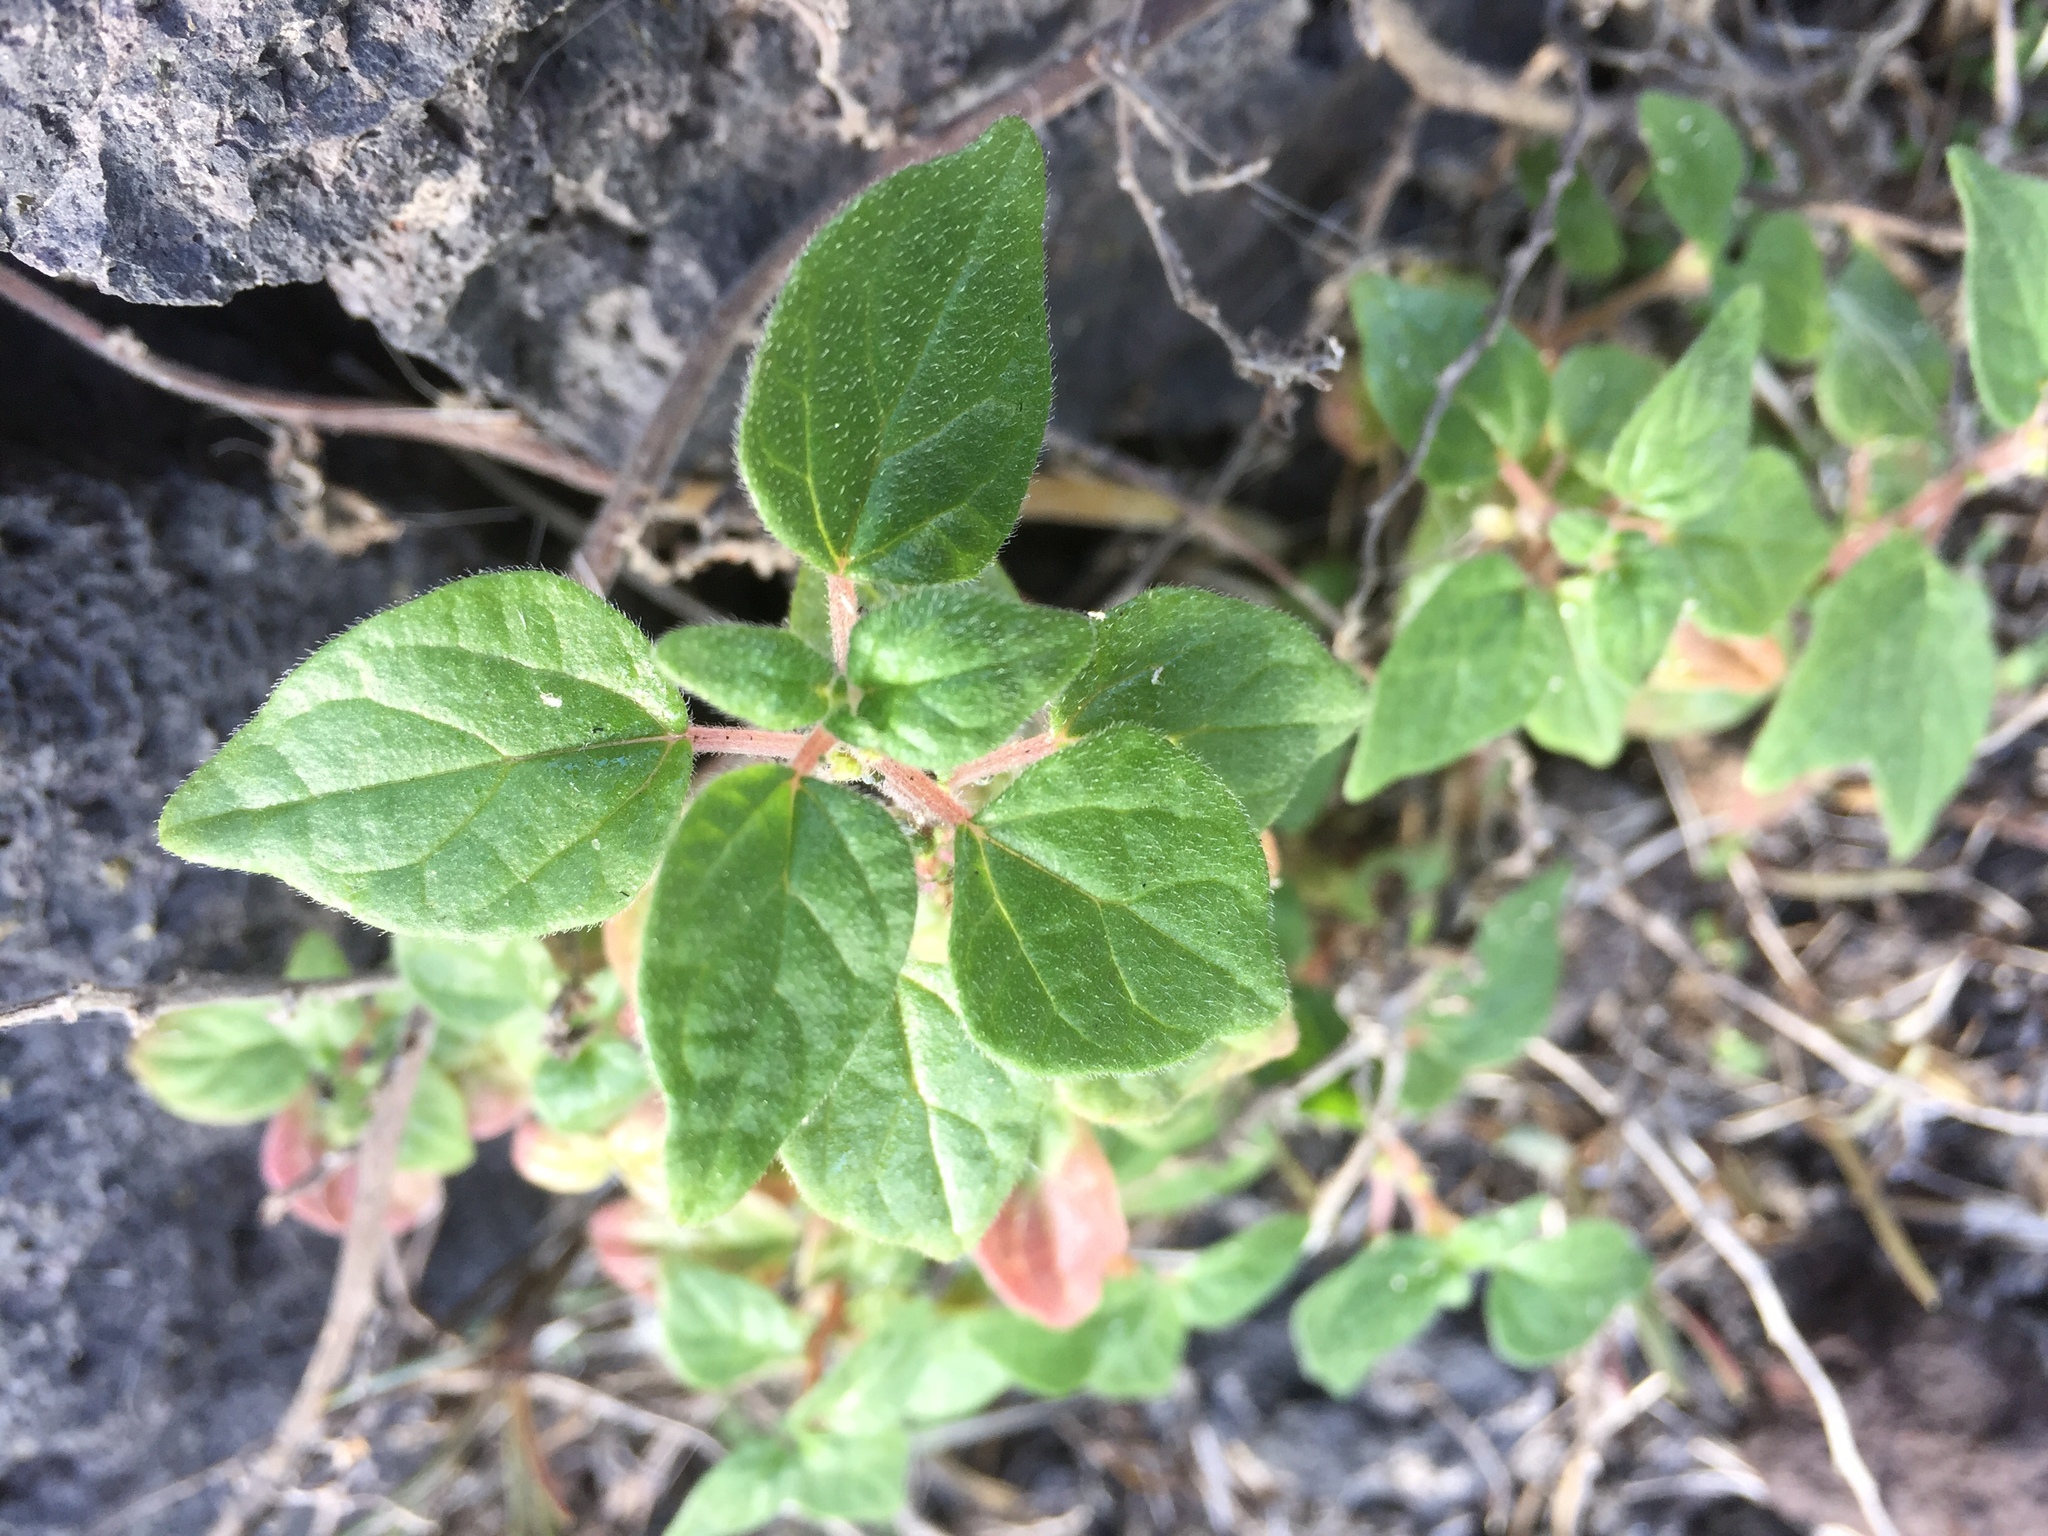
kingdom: Plantae
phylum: Tracheophyta
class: Magnoliopsida
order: Rosales
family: Urticaceae
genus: Parietaria
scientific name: Parietaria judaica
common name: Pellitory-of-the-wall
